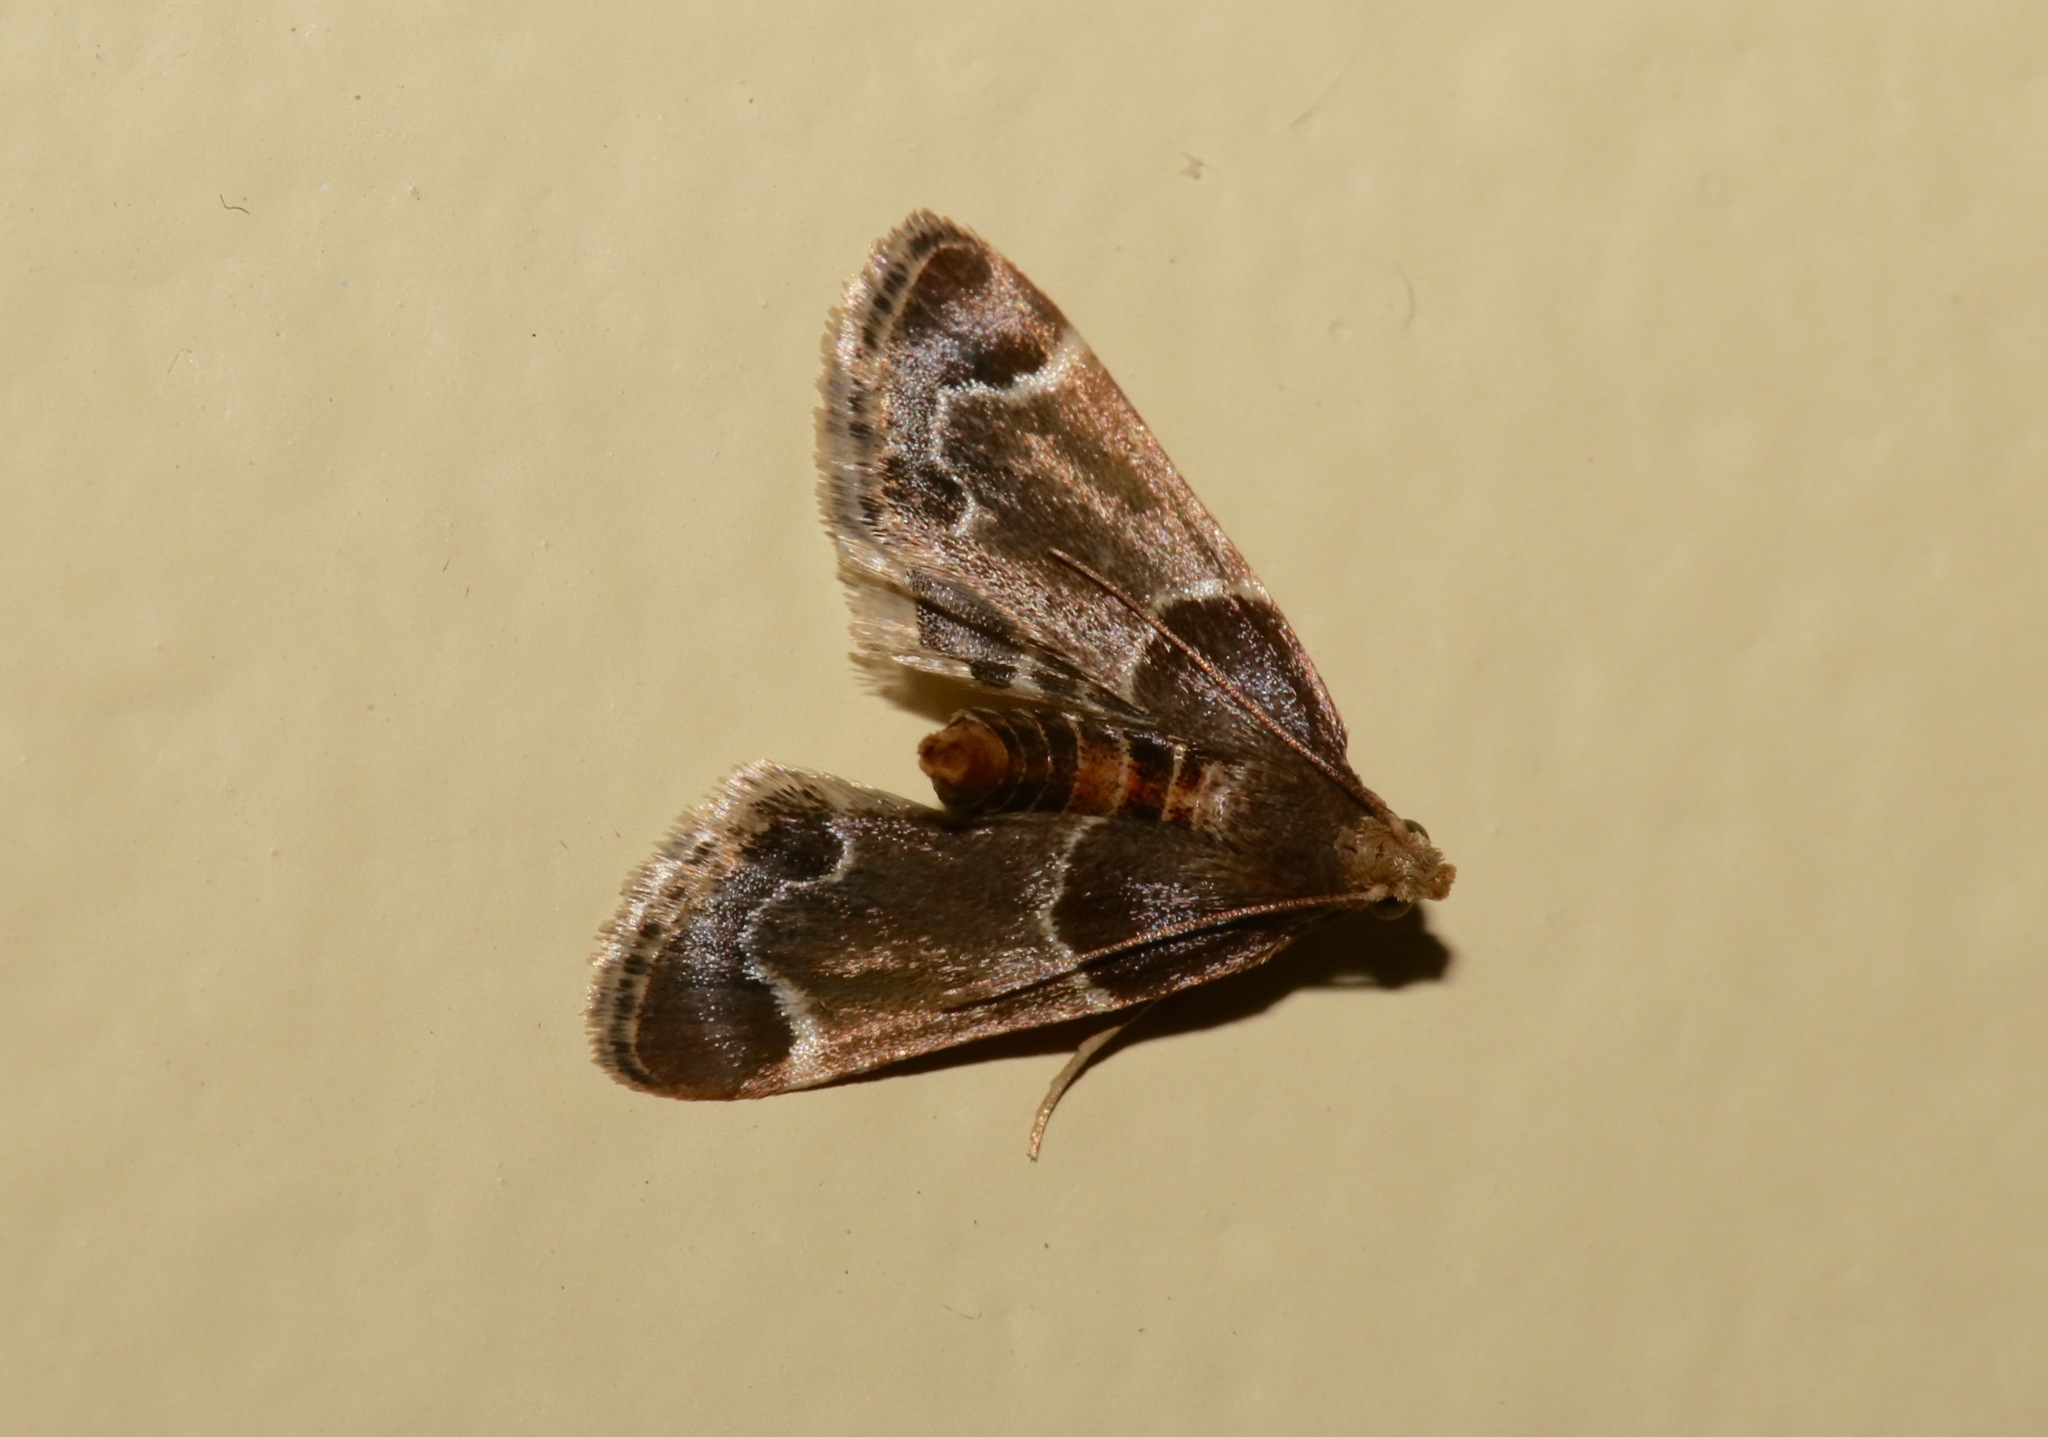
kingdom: Animalia
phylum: Arthropoda
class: Insecta
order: Lepidoptera
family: Pyralidae
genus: Pyralis
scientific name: Pyralis farinalis
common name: Meal moth
